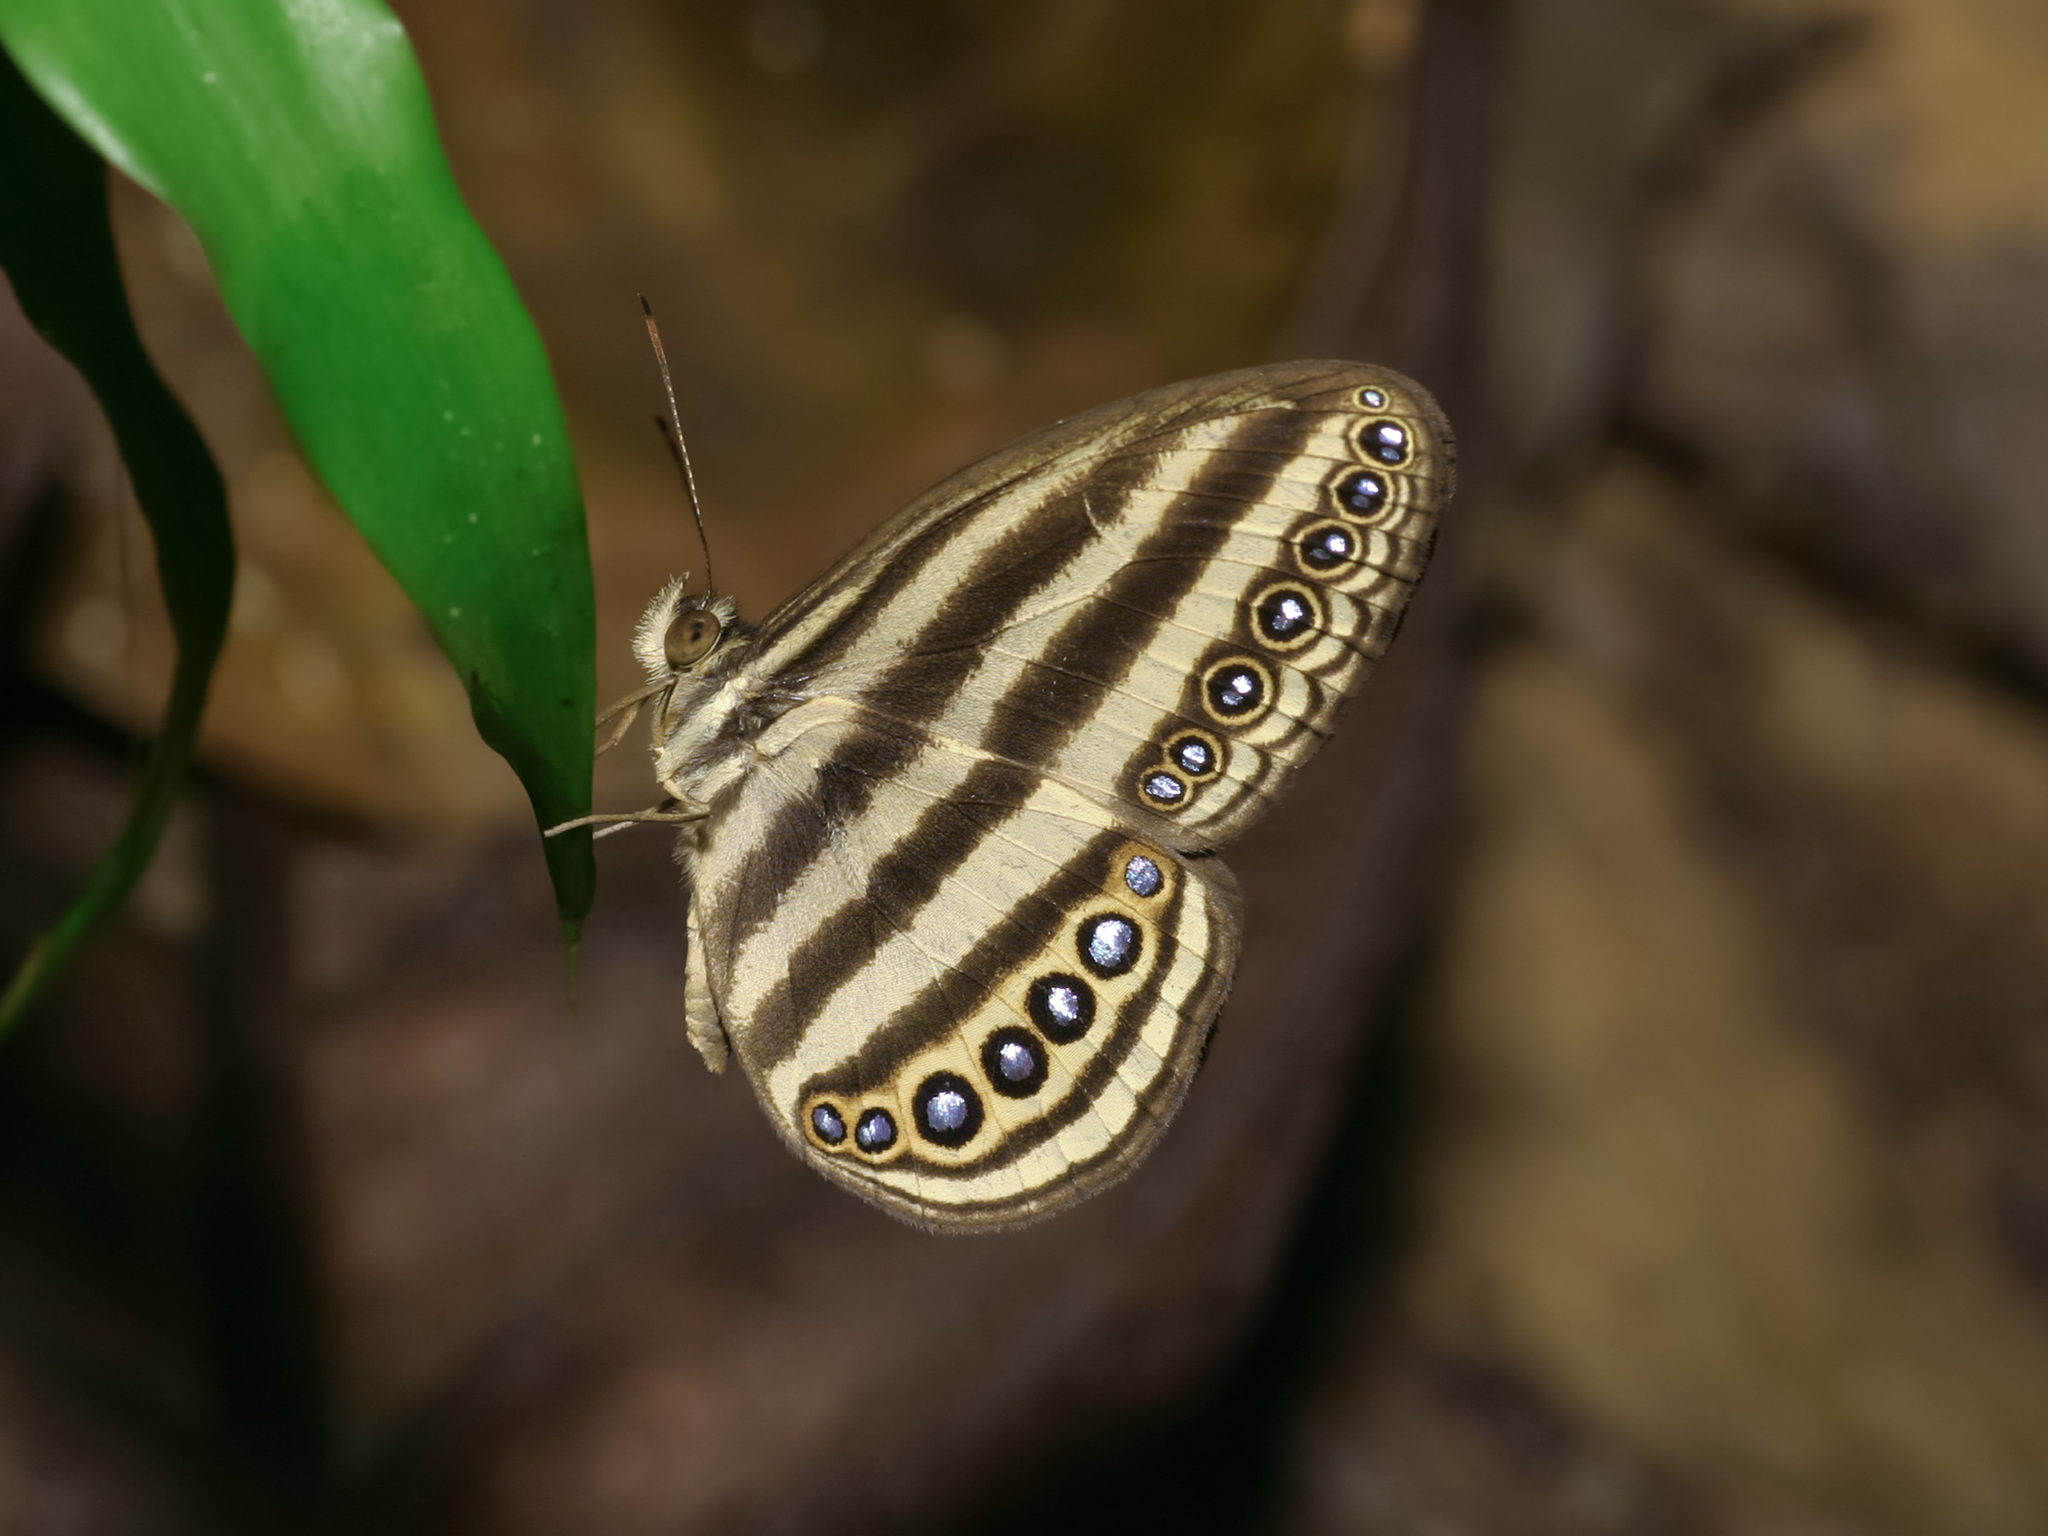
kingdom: Animalia
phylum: Arthropoda
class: Insecta
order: Lepidoptera
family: Nymphalidae
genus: Ragadia
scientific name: Ragadia makuta
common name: Striped ringlet
